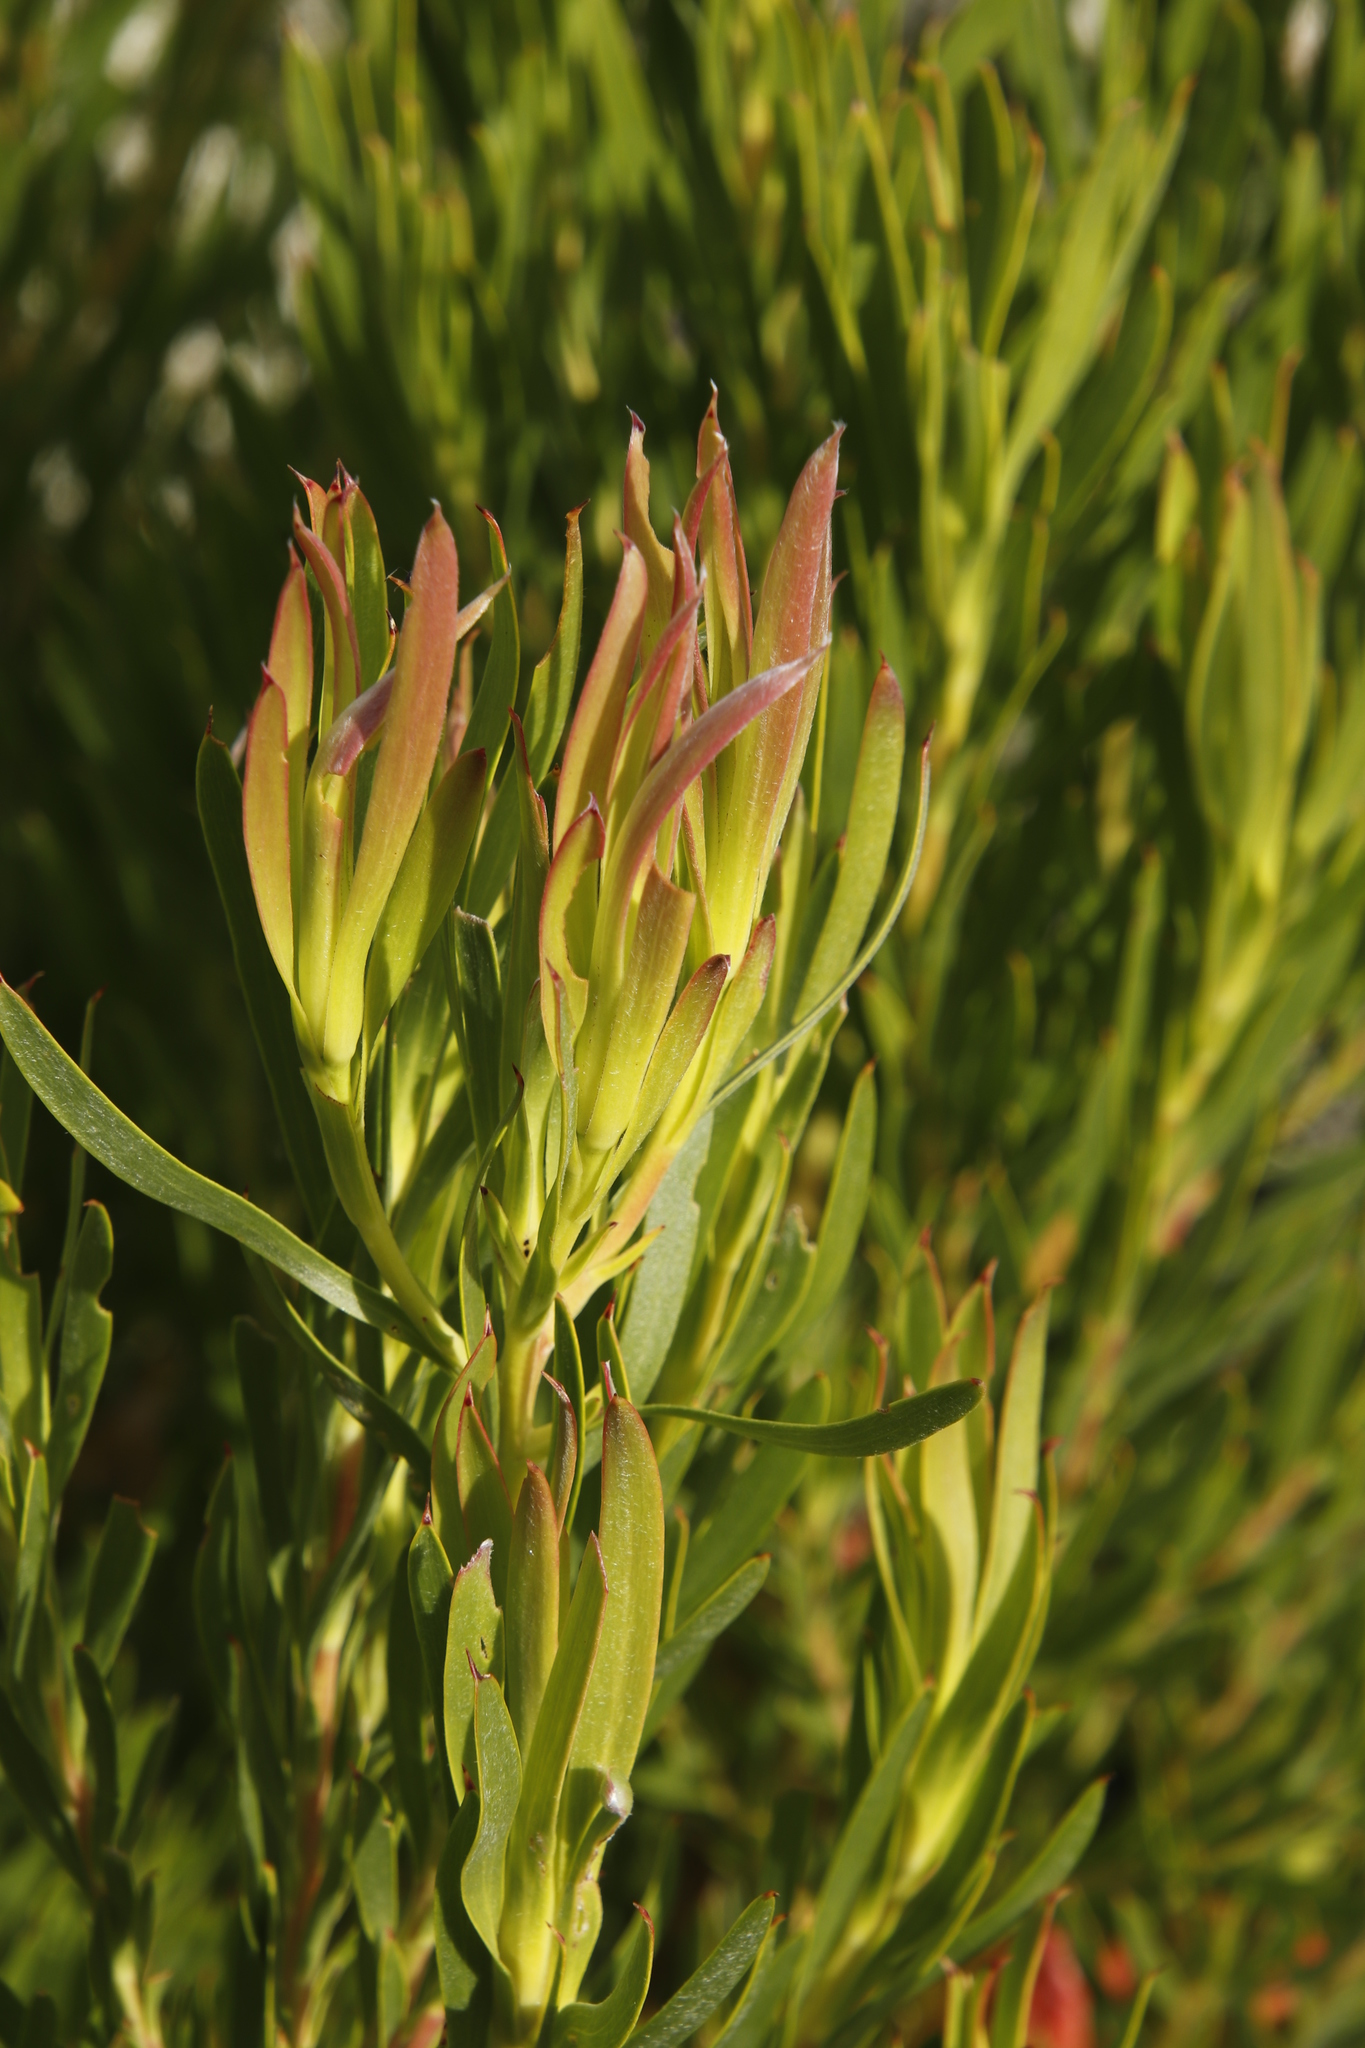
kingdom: Plantae
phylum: Tracheophyta
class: Magnoliopsida
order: Proteales
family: Proteaceae
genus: Leucadendron
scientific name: Leucadendron xanthoconus
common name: Sickle-leaf conebush
